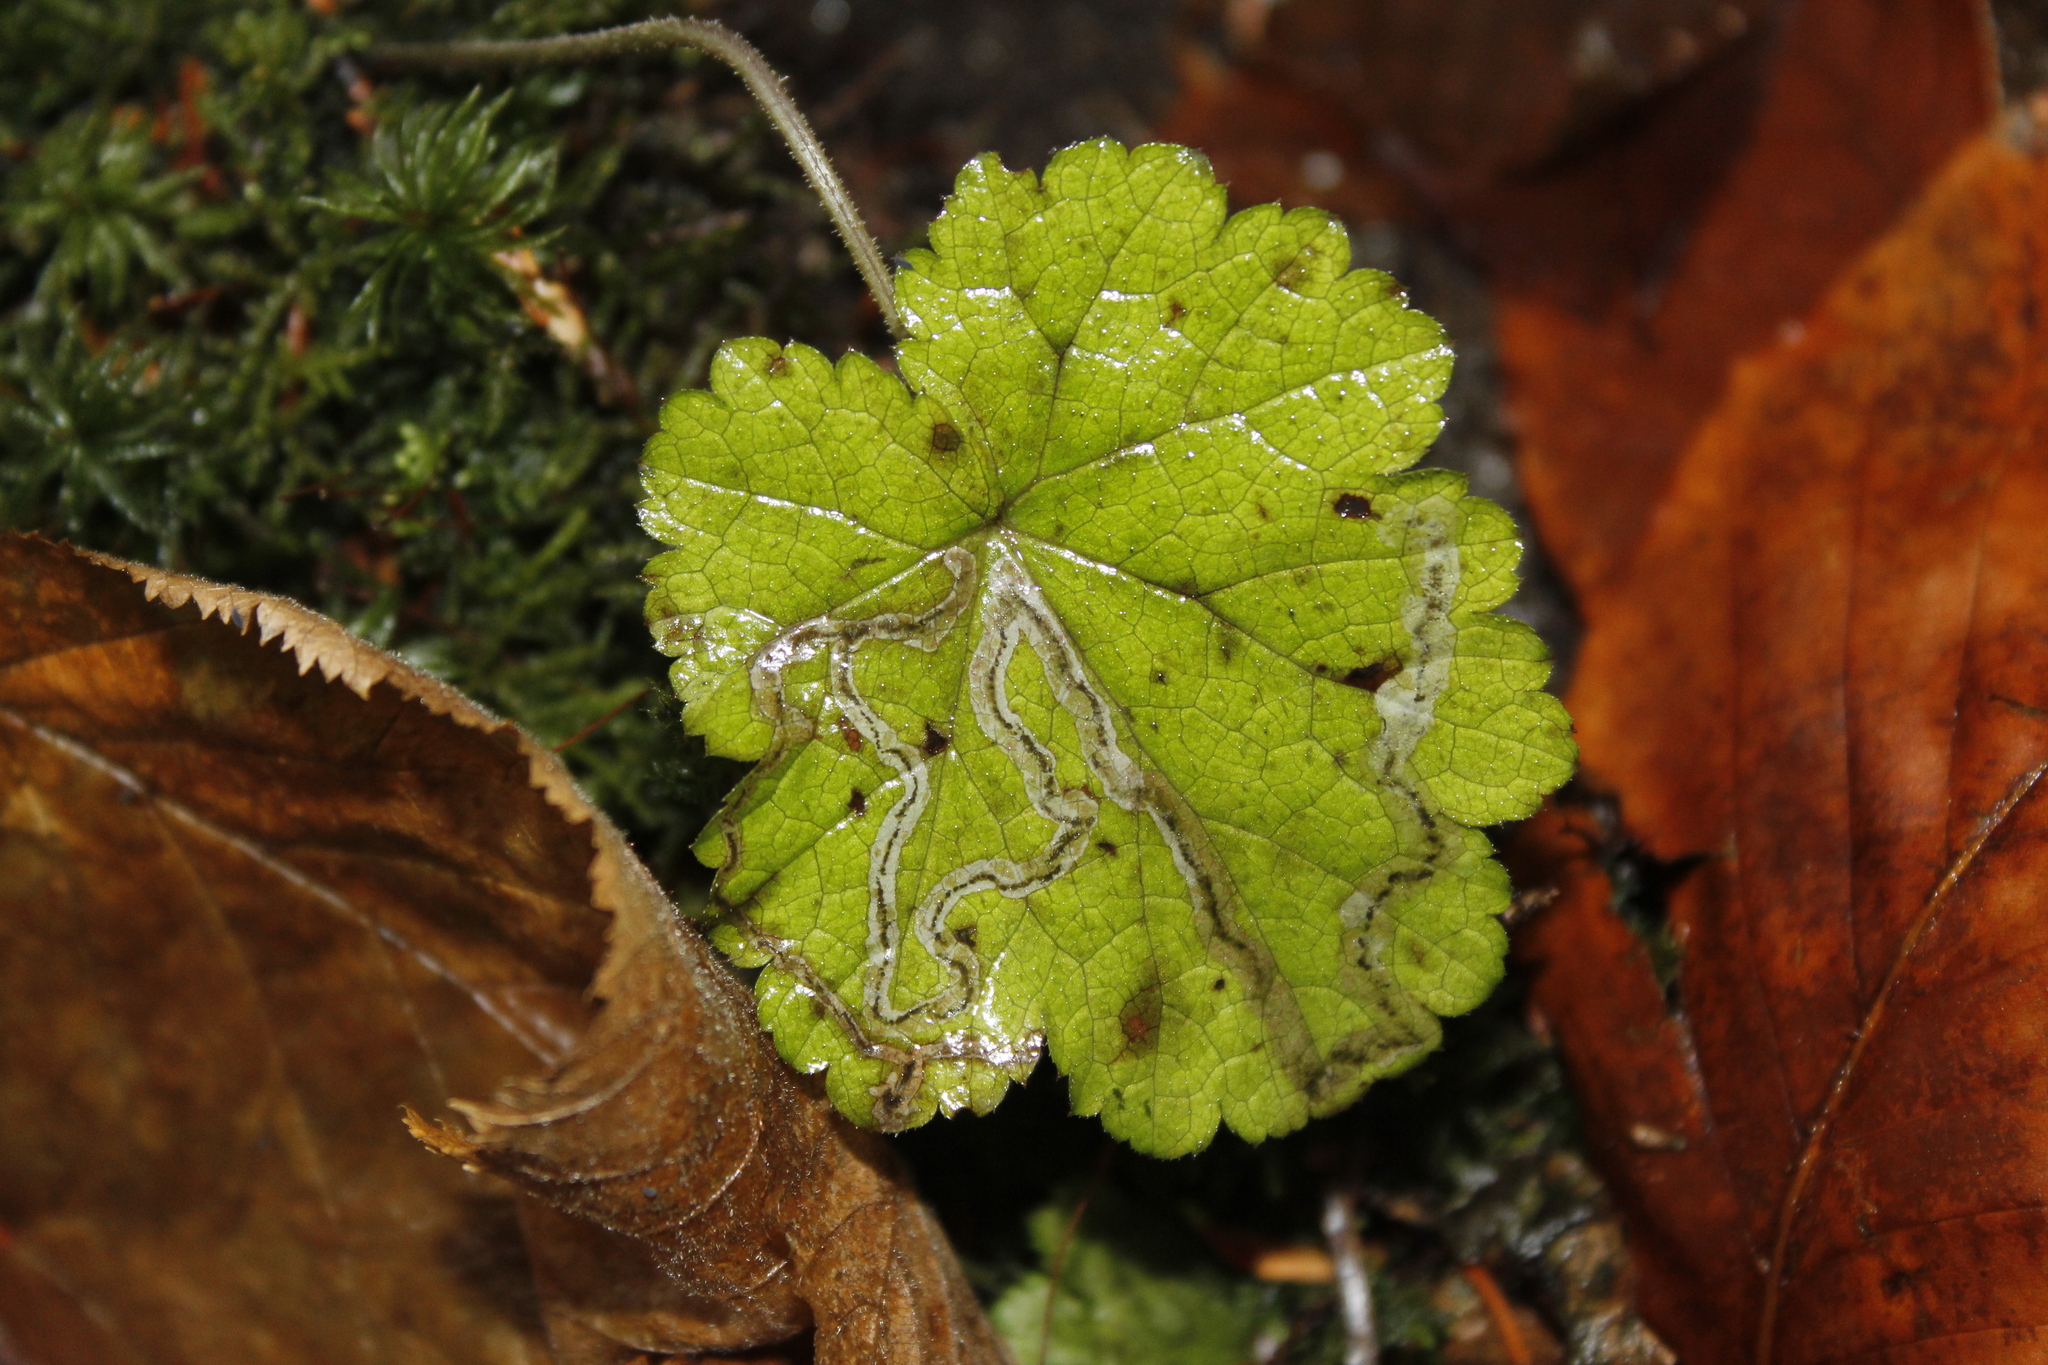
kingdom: Animalia
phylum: Arthropoda
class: Insecta
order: Diptera
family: Agromyzidae
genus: Phytomyza
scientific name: Phytomyza tigris
